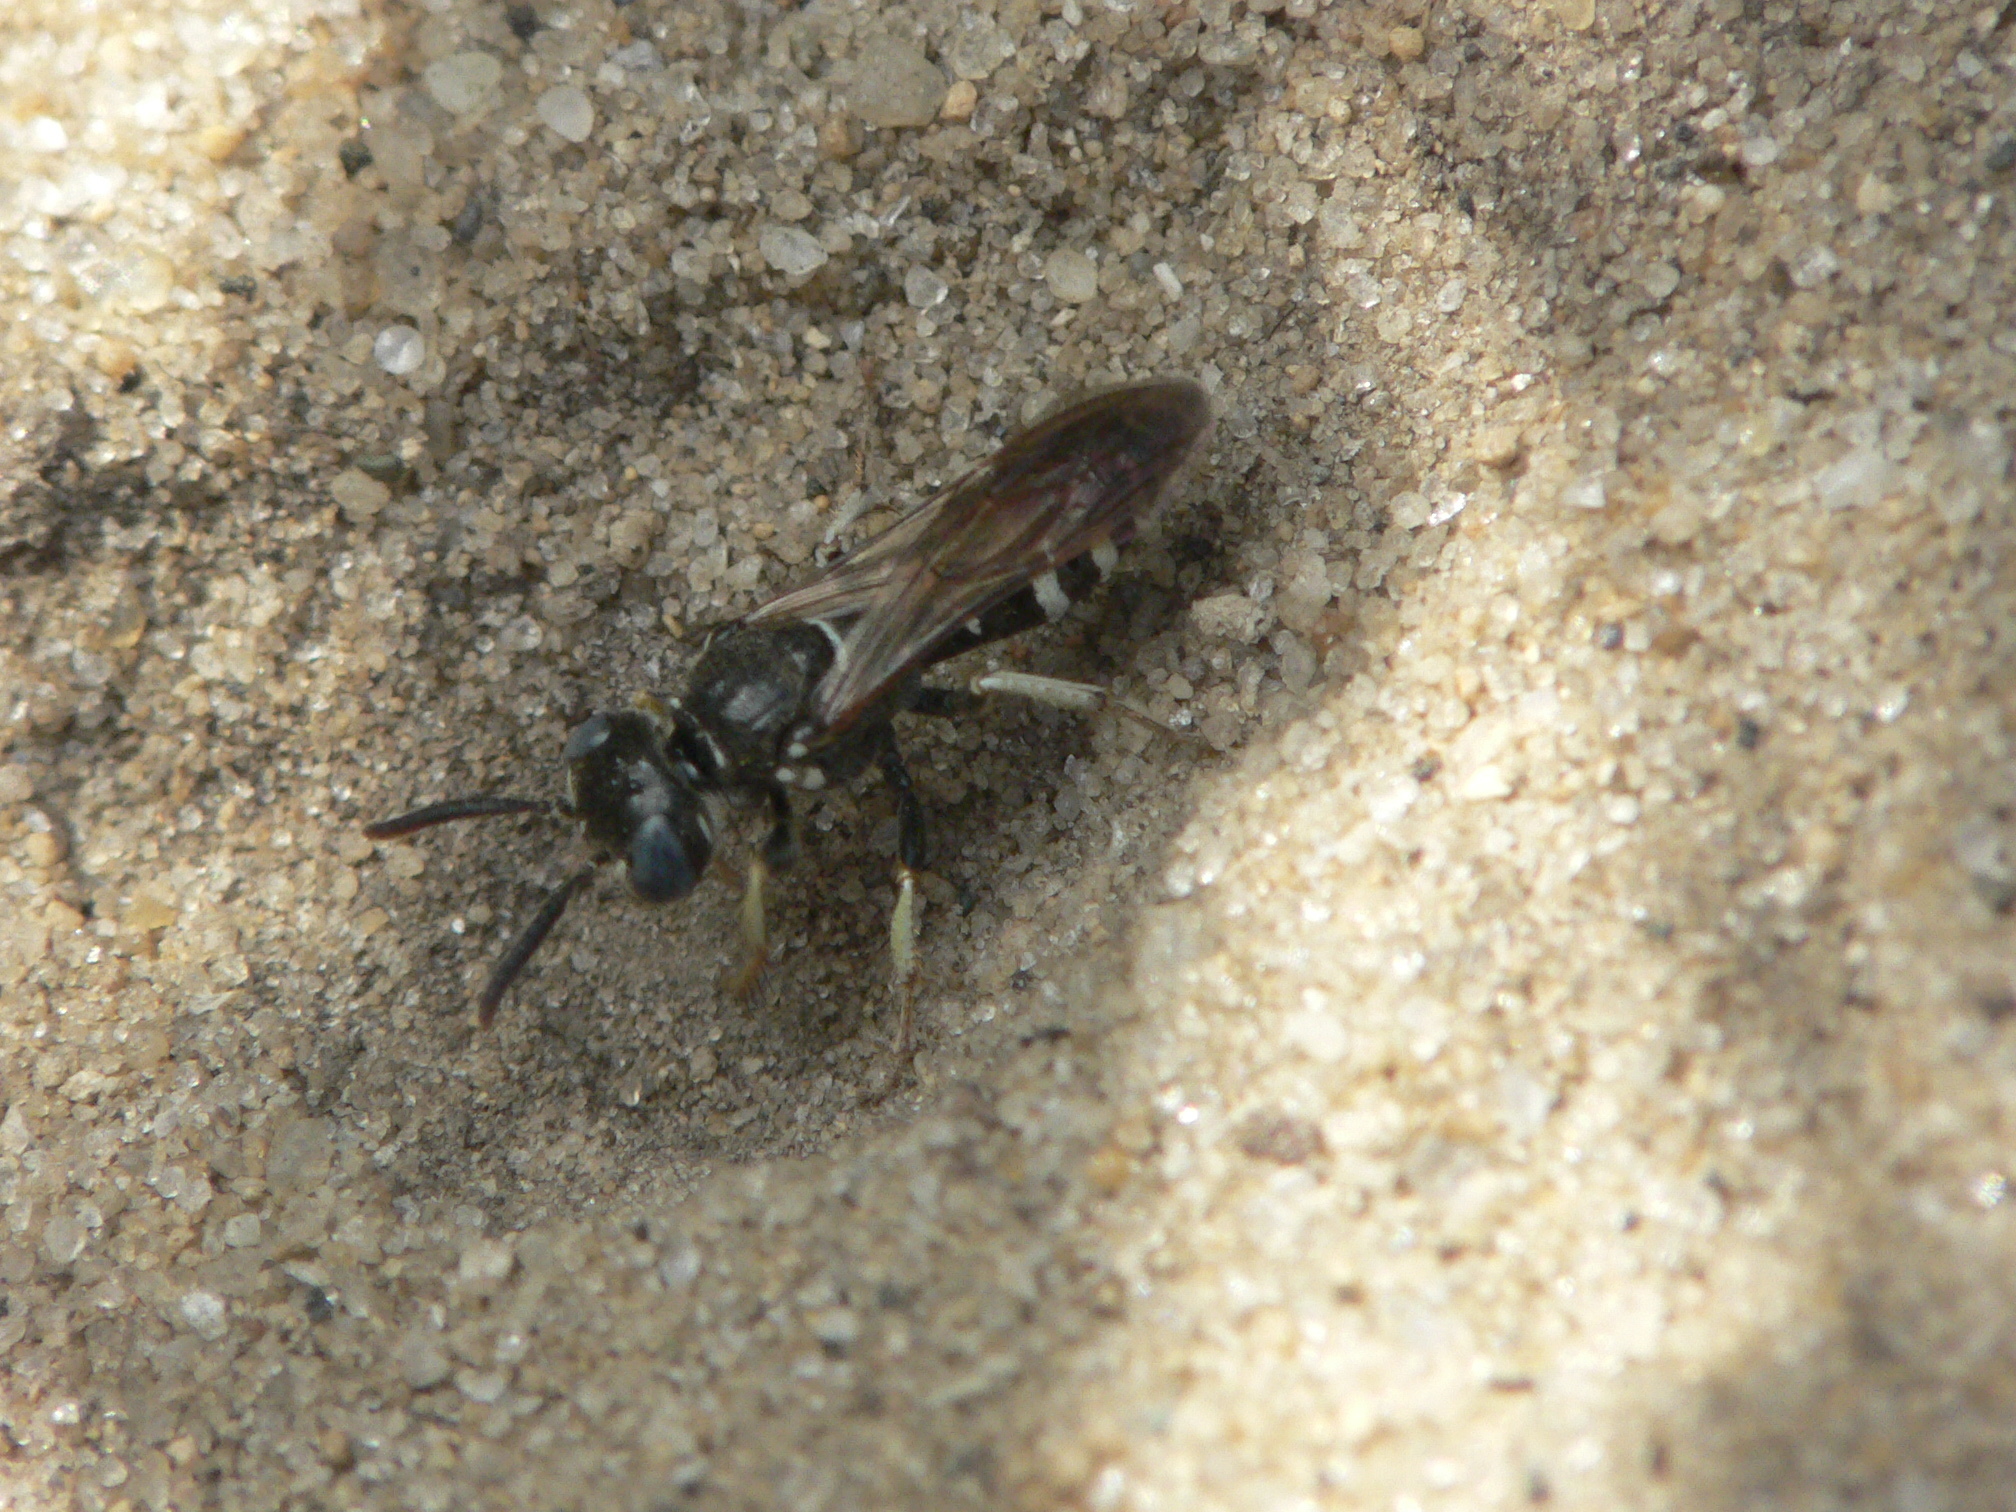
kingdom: Animalia
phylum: Arthropoda
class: Insecta
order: Hymenoptera
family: Crabronidae
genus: Philanthus
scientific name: Philanthus politus
